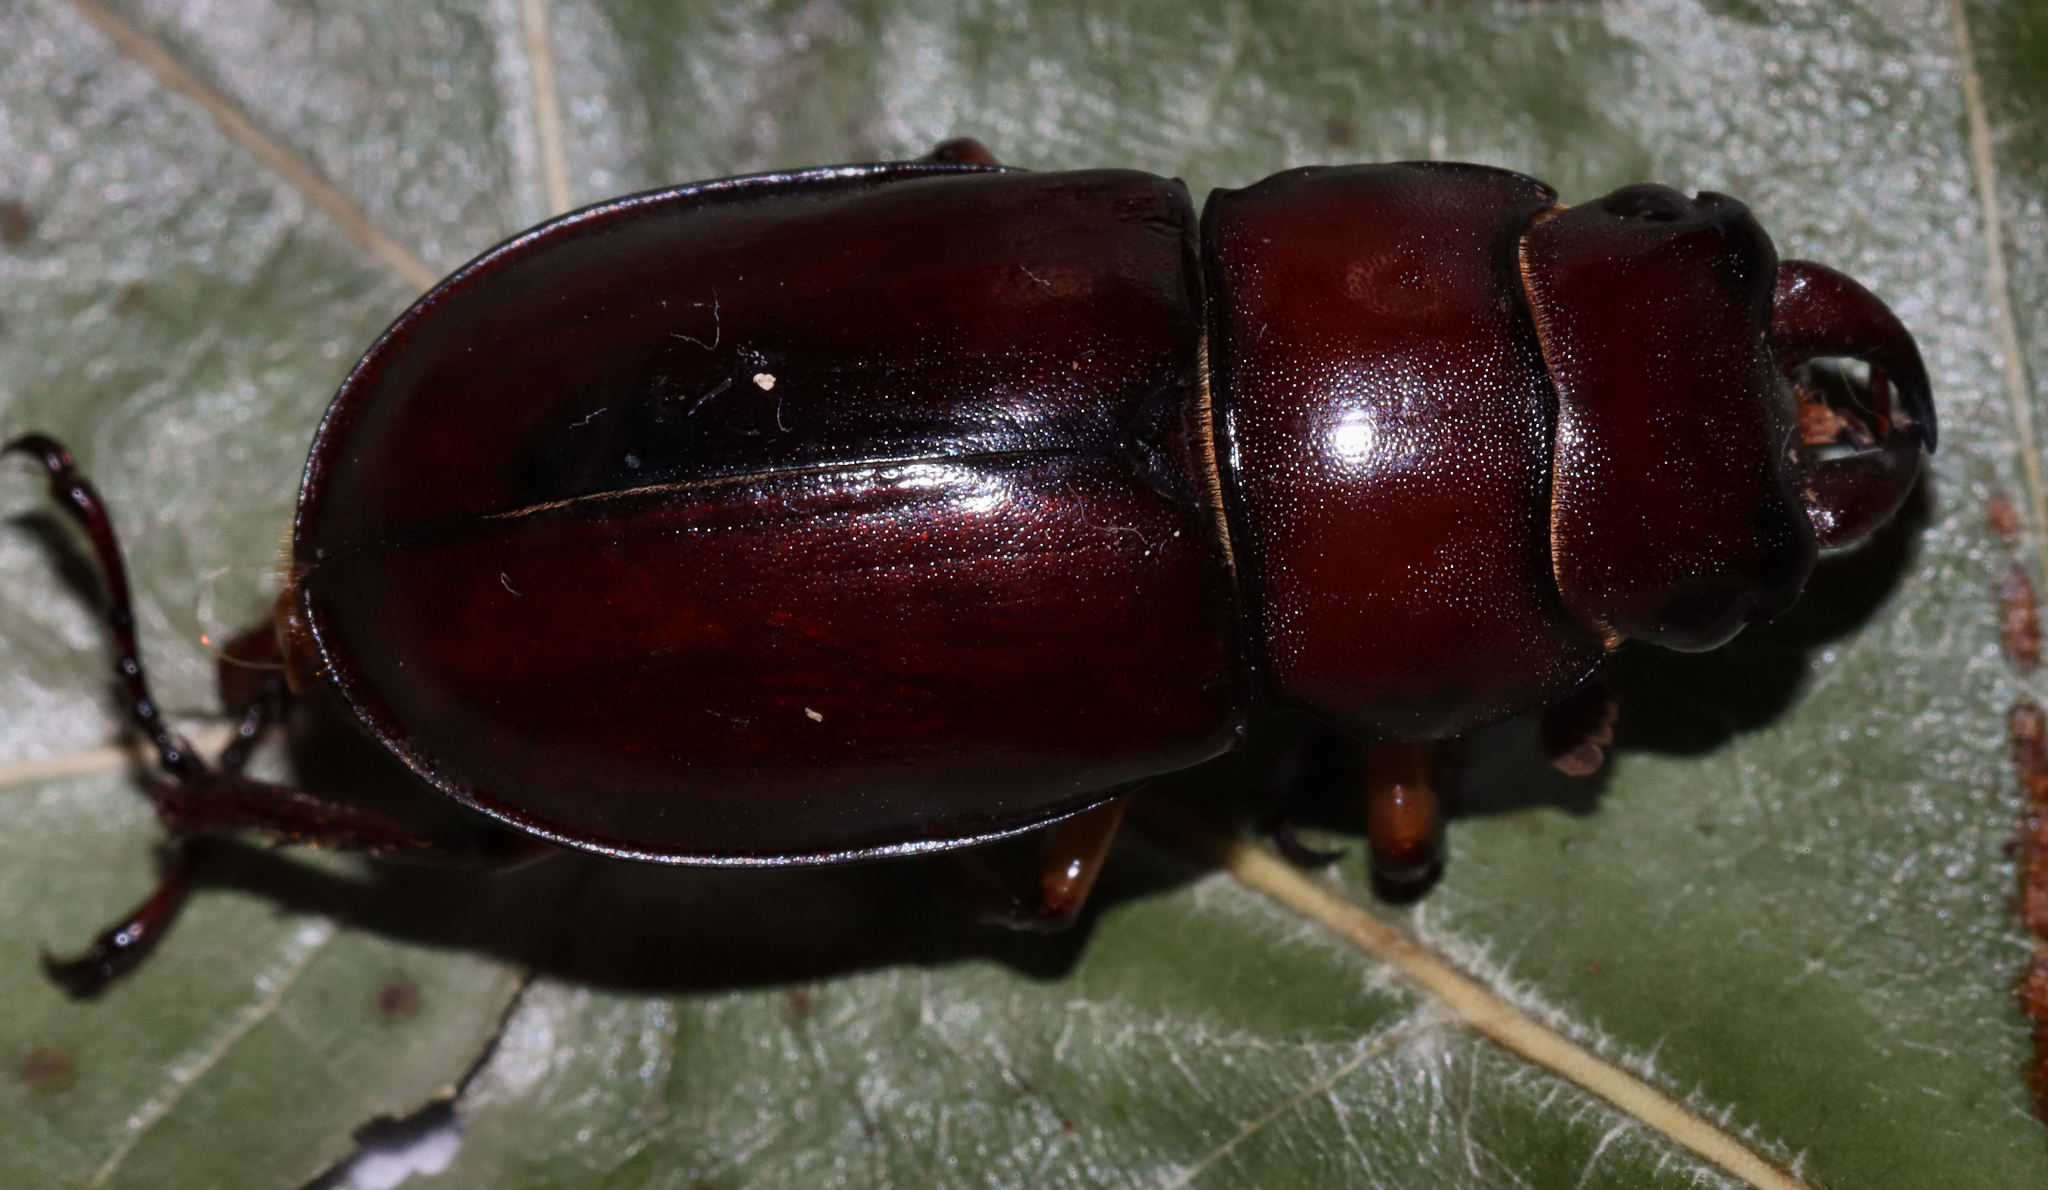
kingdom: Animalia
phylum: Arthropoda
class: Insecta
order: Coleoptera
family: Lucanidae
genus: Lucanus
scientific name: Lucanus capreolus
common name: Stag beetle
